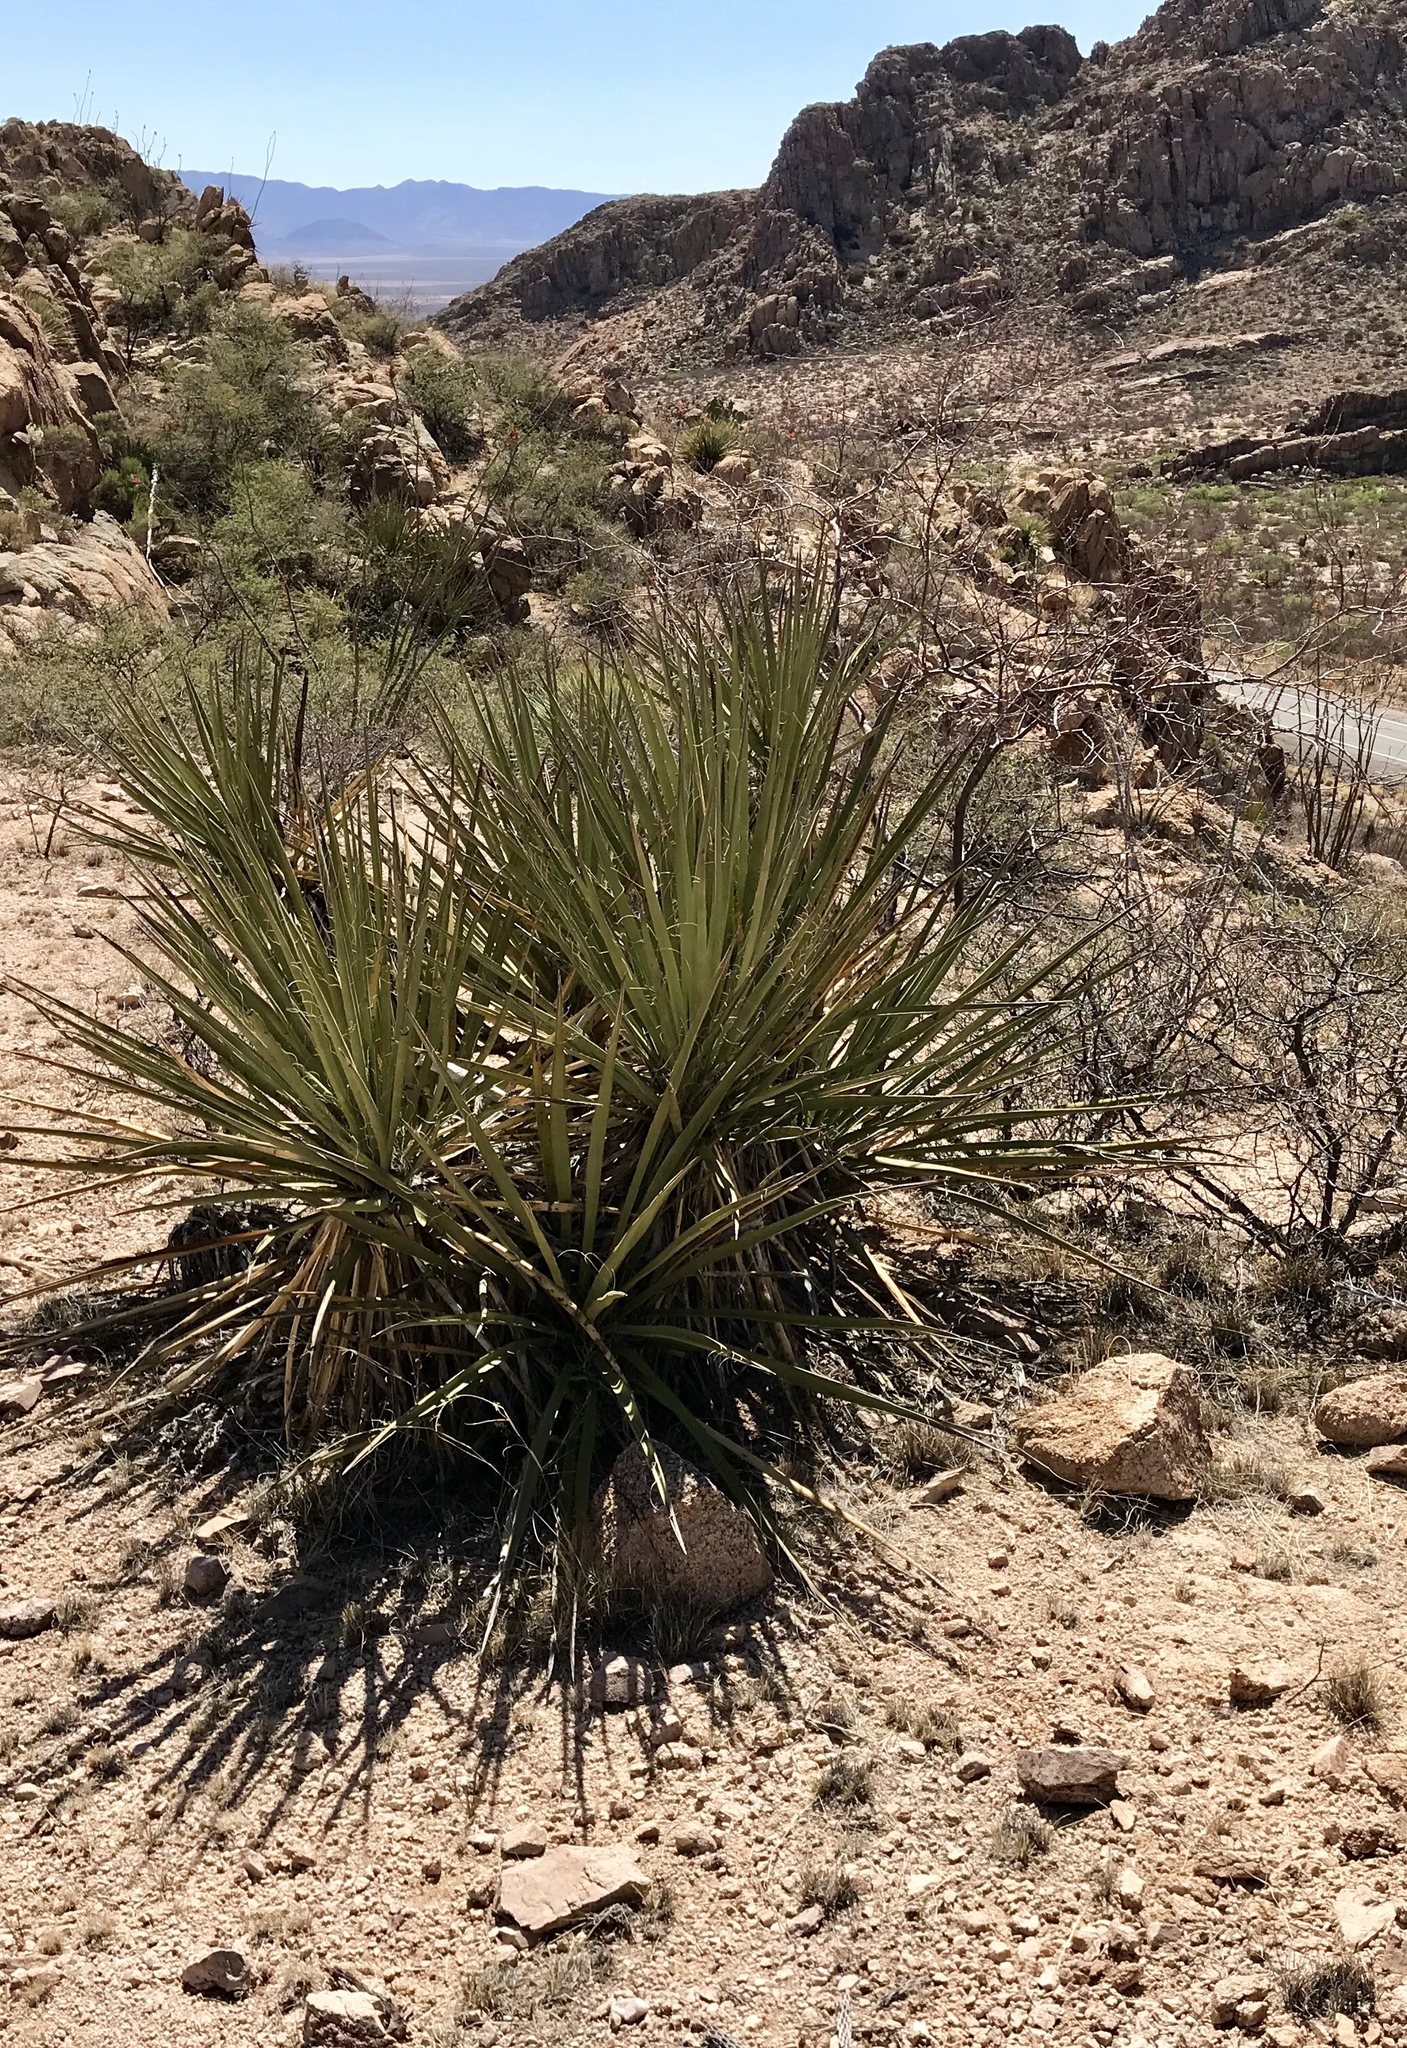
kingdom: Plantae
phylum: Tracheophyta
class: Liliopsida
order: Asparagales
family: Asparagaceae
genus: Yucca
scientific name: Yucca baccata
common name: Banana yucca
